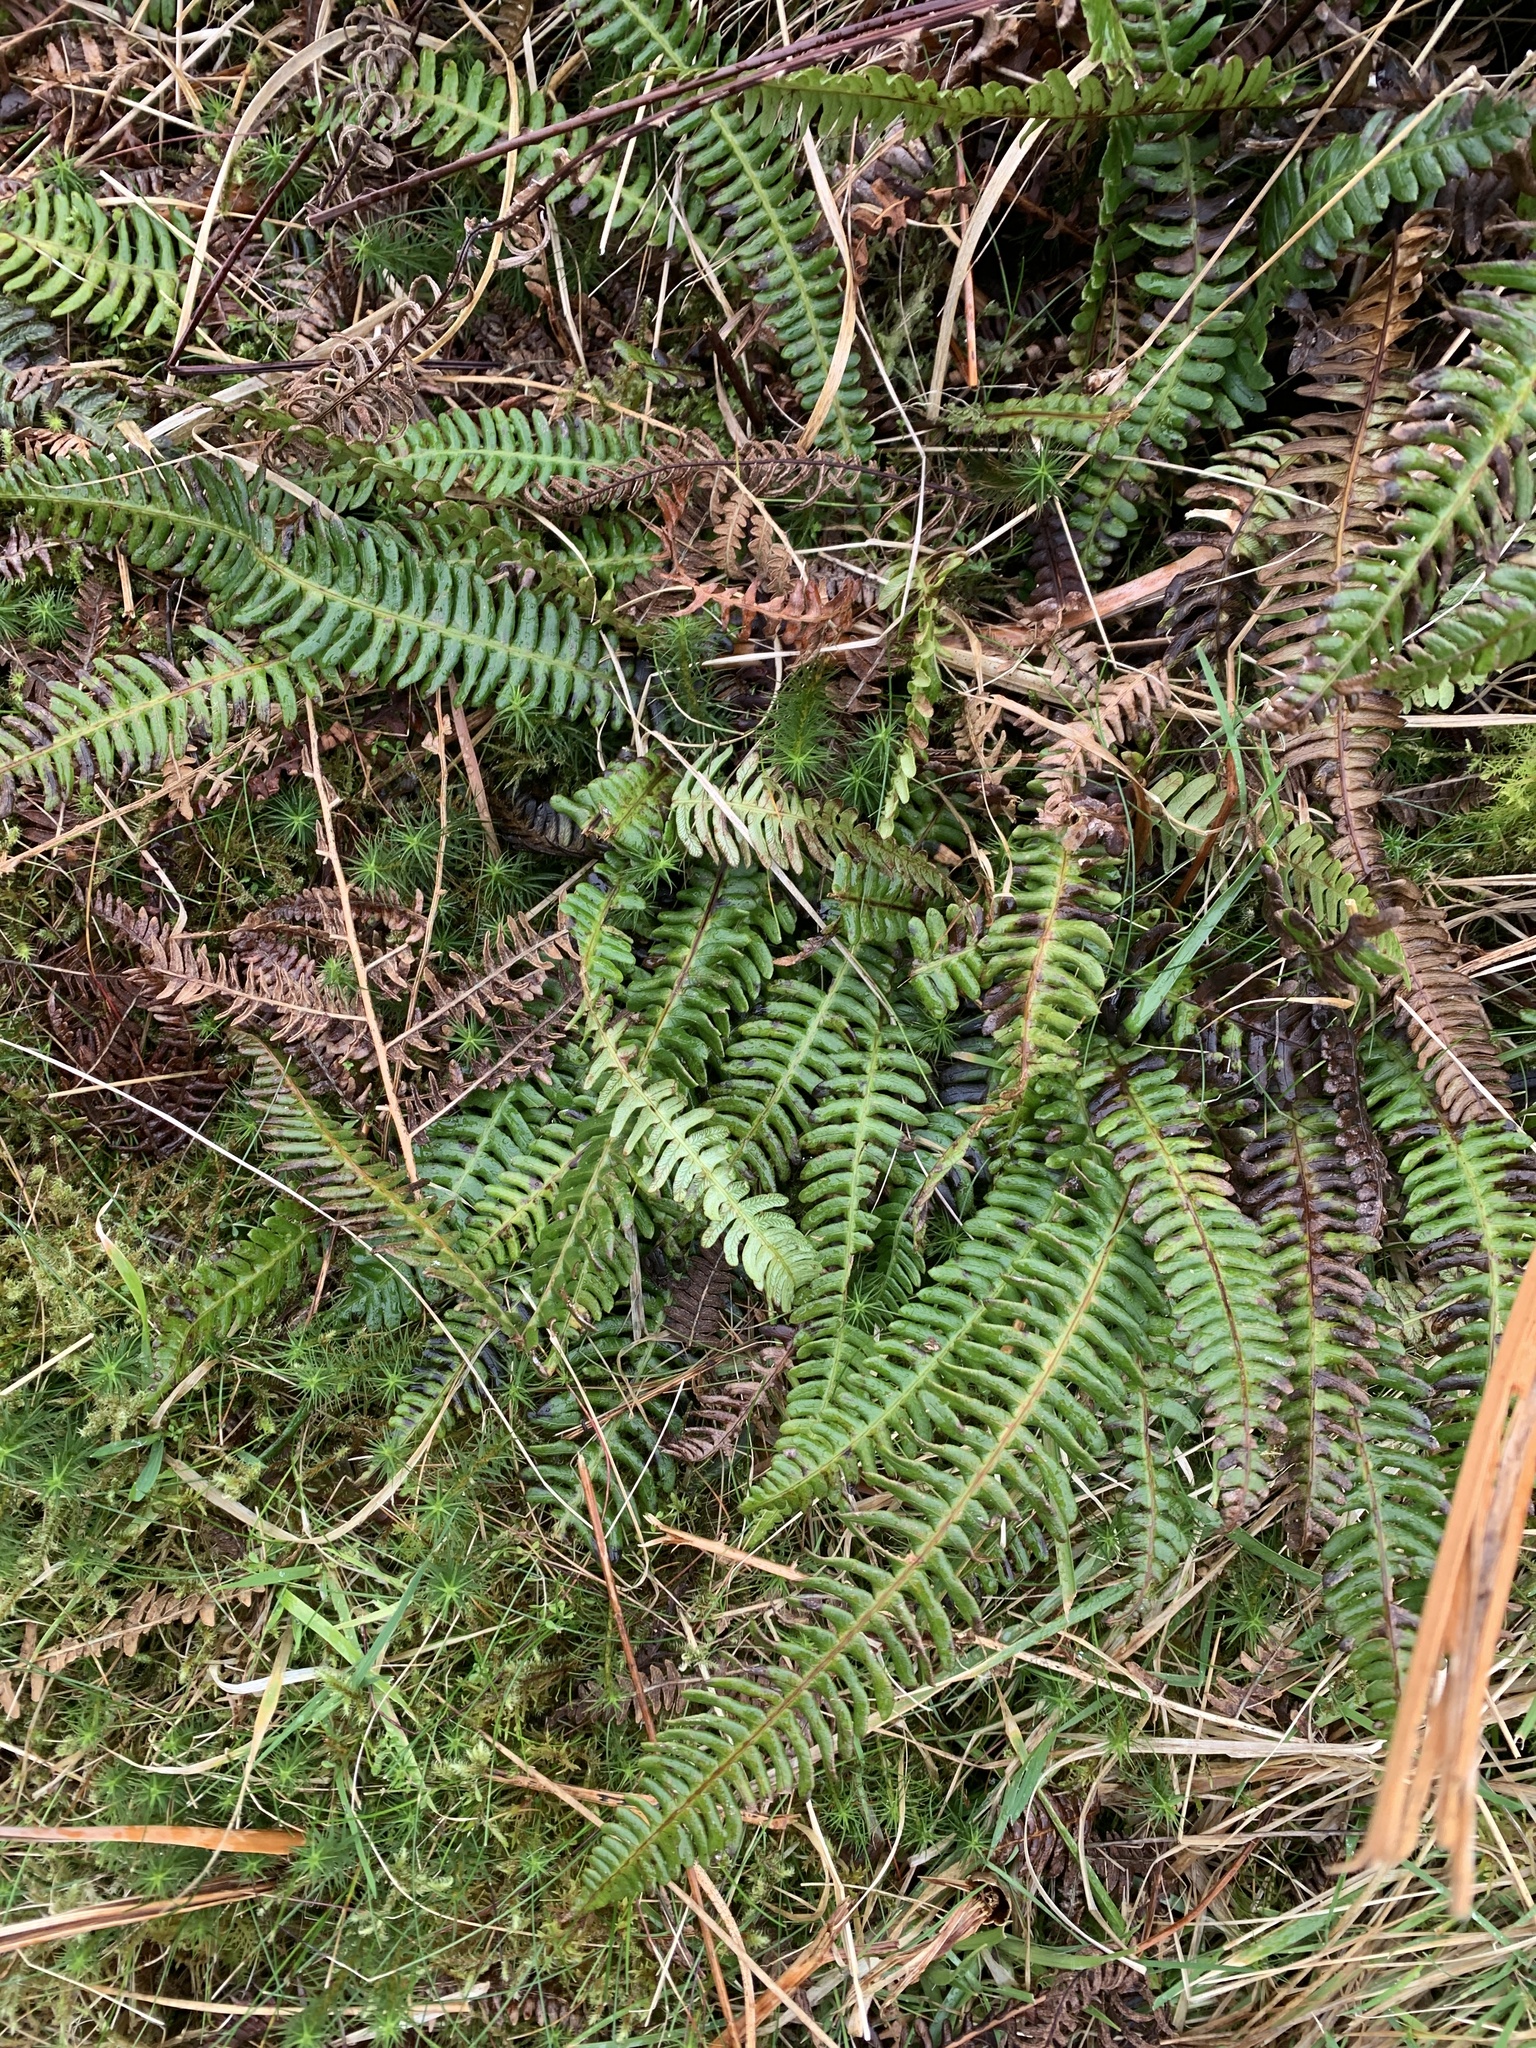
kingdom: Plantae
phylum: Tracheophyta
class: Polypodiopsida
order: Polypodiales
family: Blechnaceae
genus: Struthiopteris
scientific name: Struthiopteris spicant
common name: Deer fern
